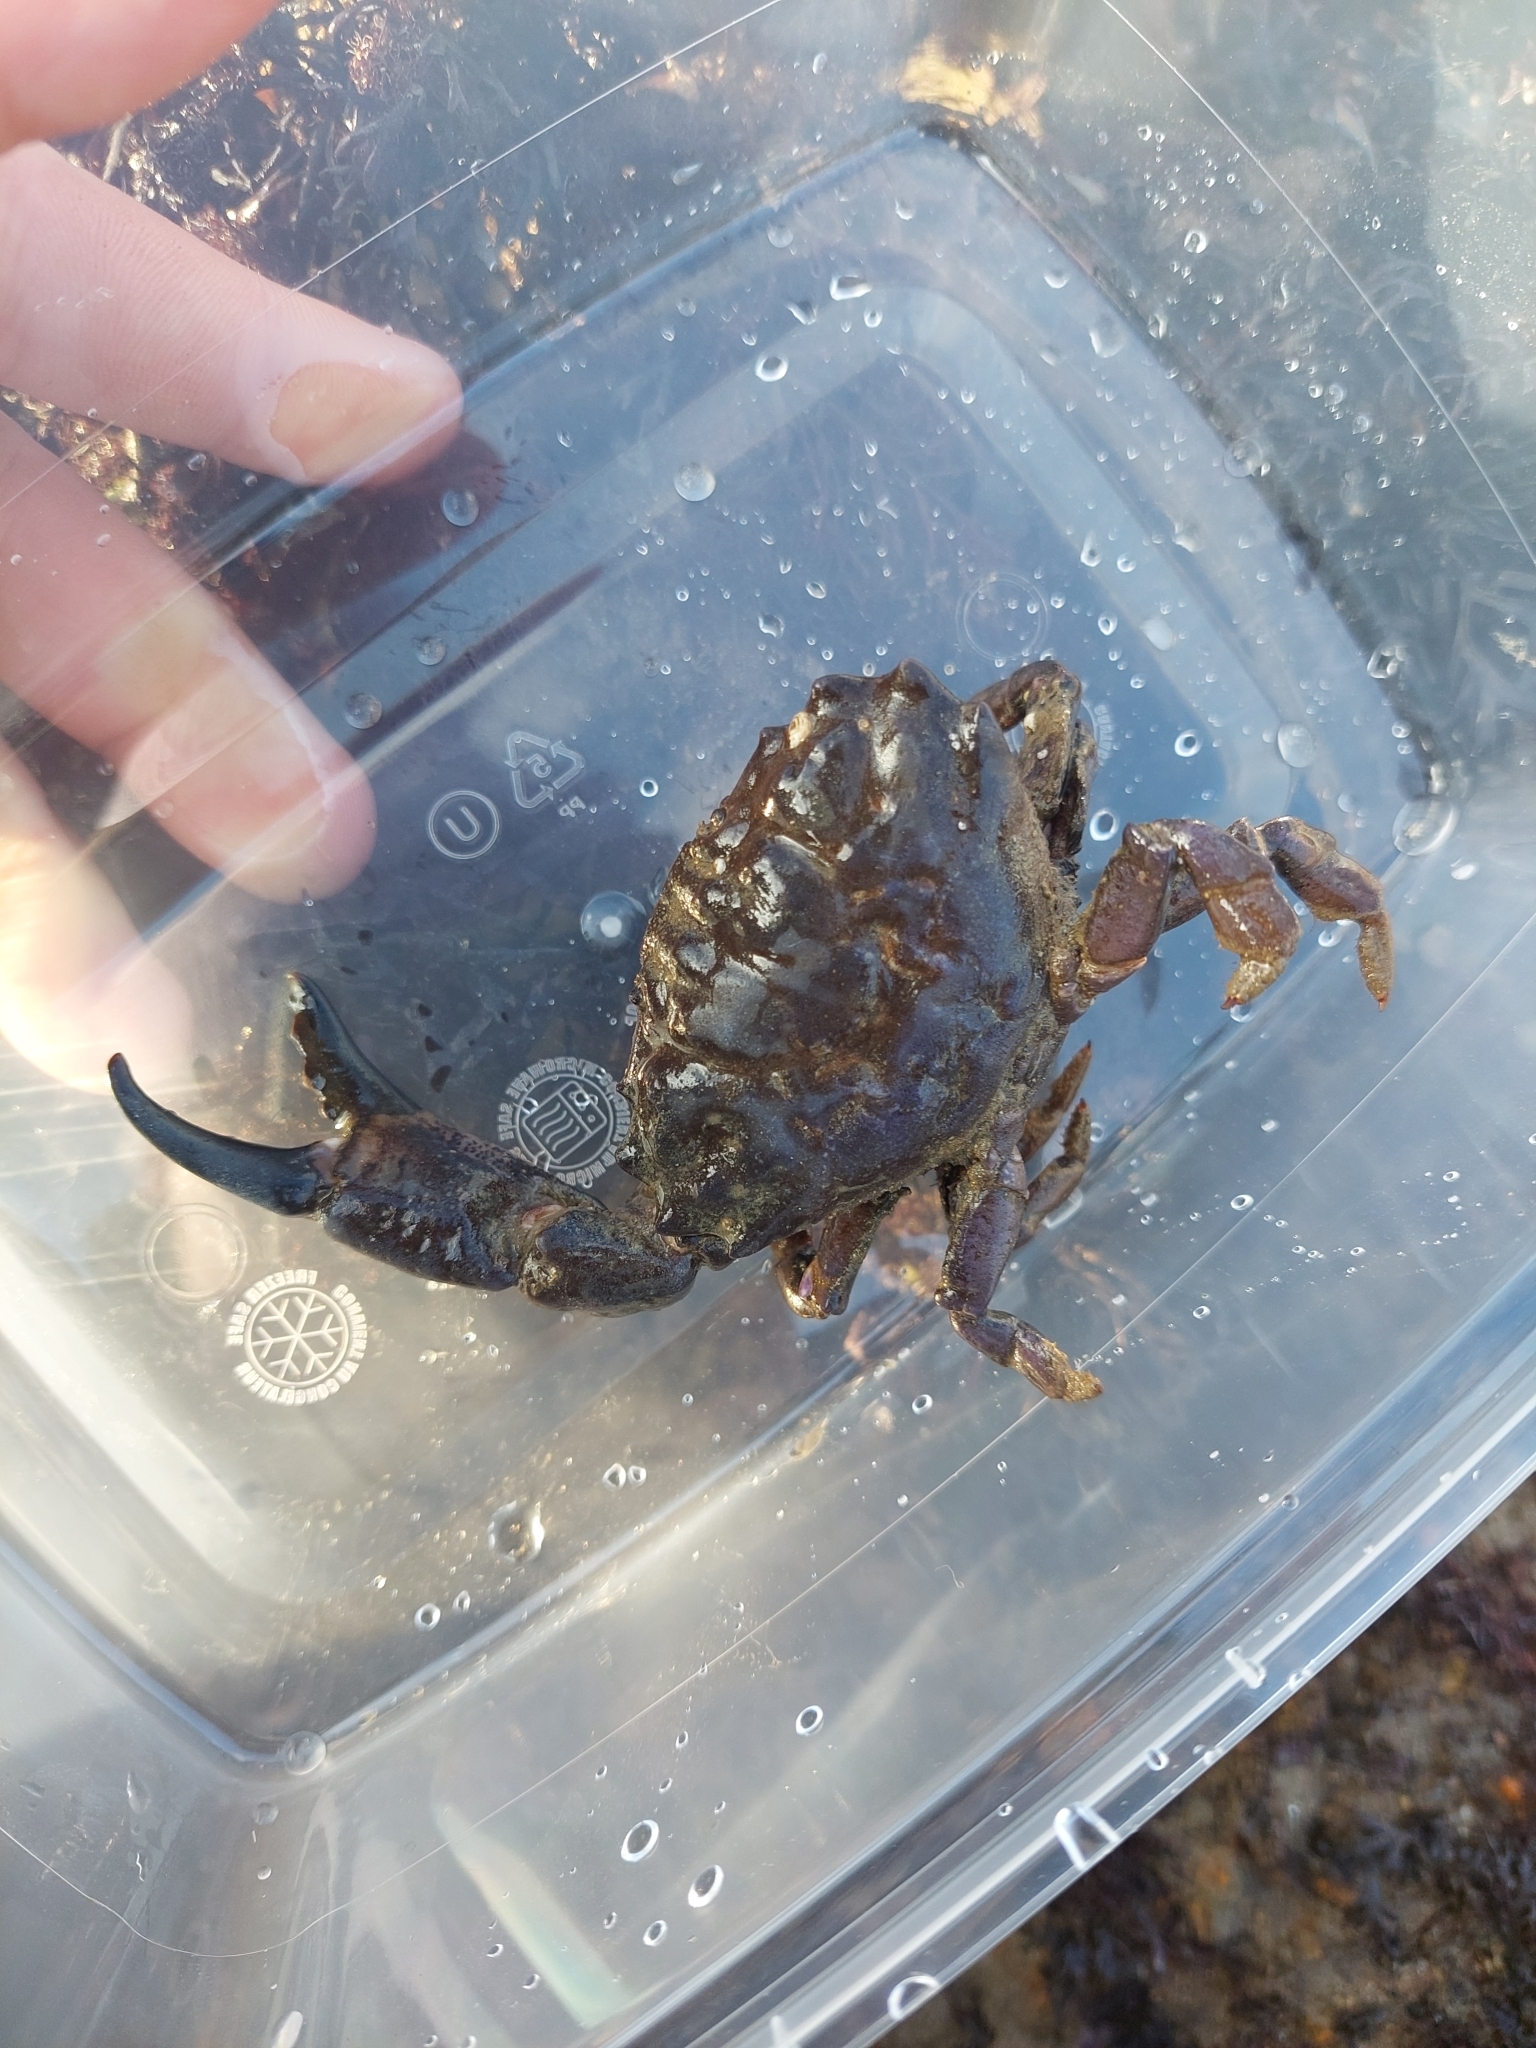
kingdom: Animalia
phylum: Arthropoda
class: Malacostraca
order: Decapoda
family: Xanthidae
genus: Xantho
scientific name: Xantho hydrophilus
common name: Montagu's crab
